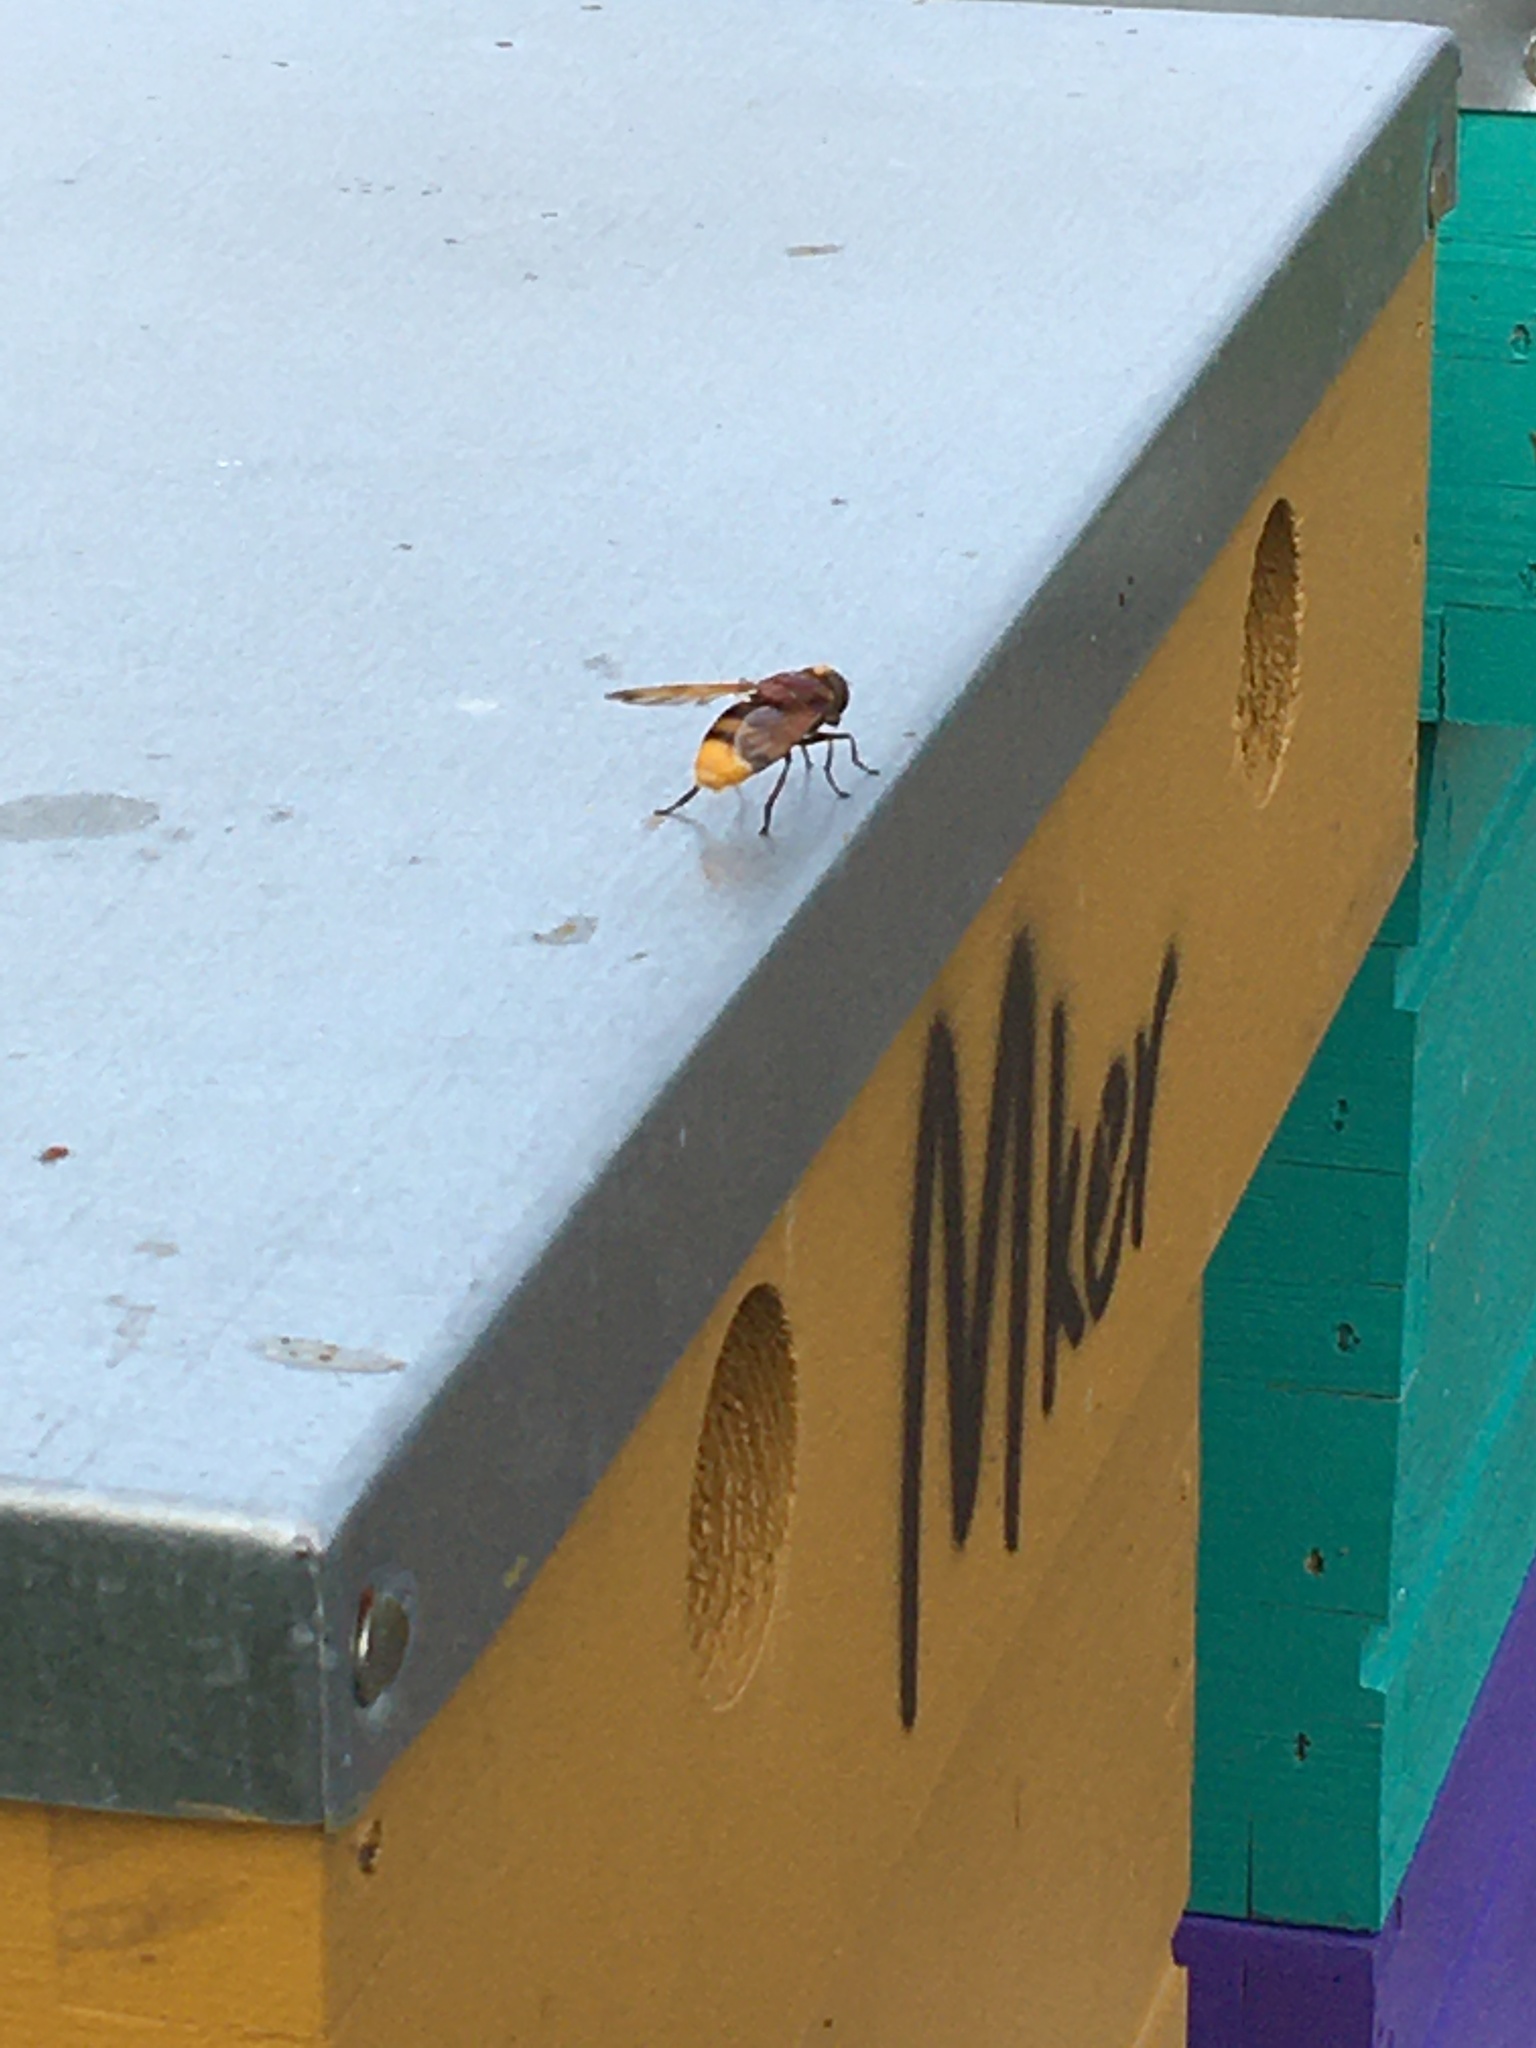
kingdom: Animalia
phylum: Arthropoda
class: Insecta
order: Diptera
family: Syrphidae
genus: Volucella
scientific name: Volucella zonaria
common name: Hornet hoverfly
